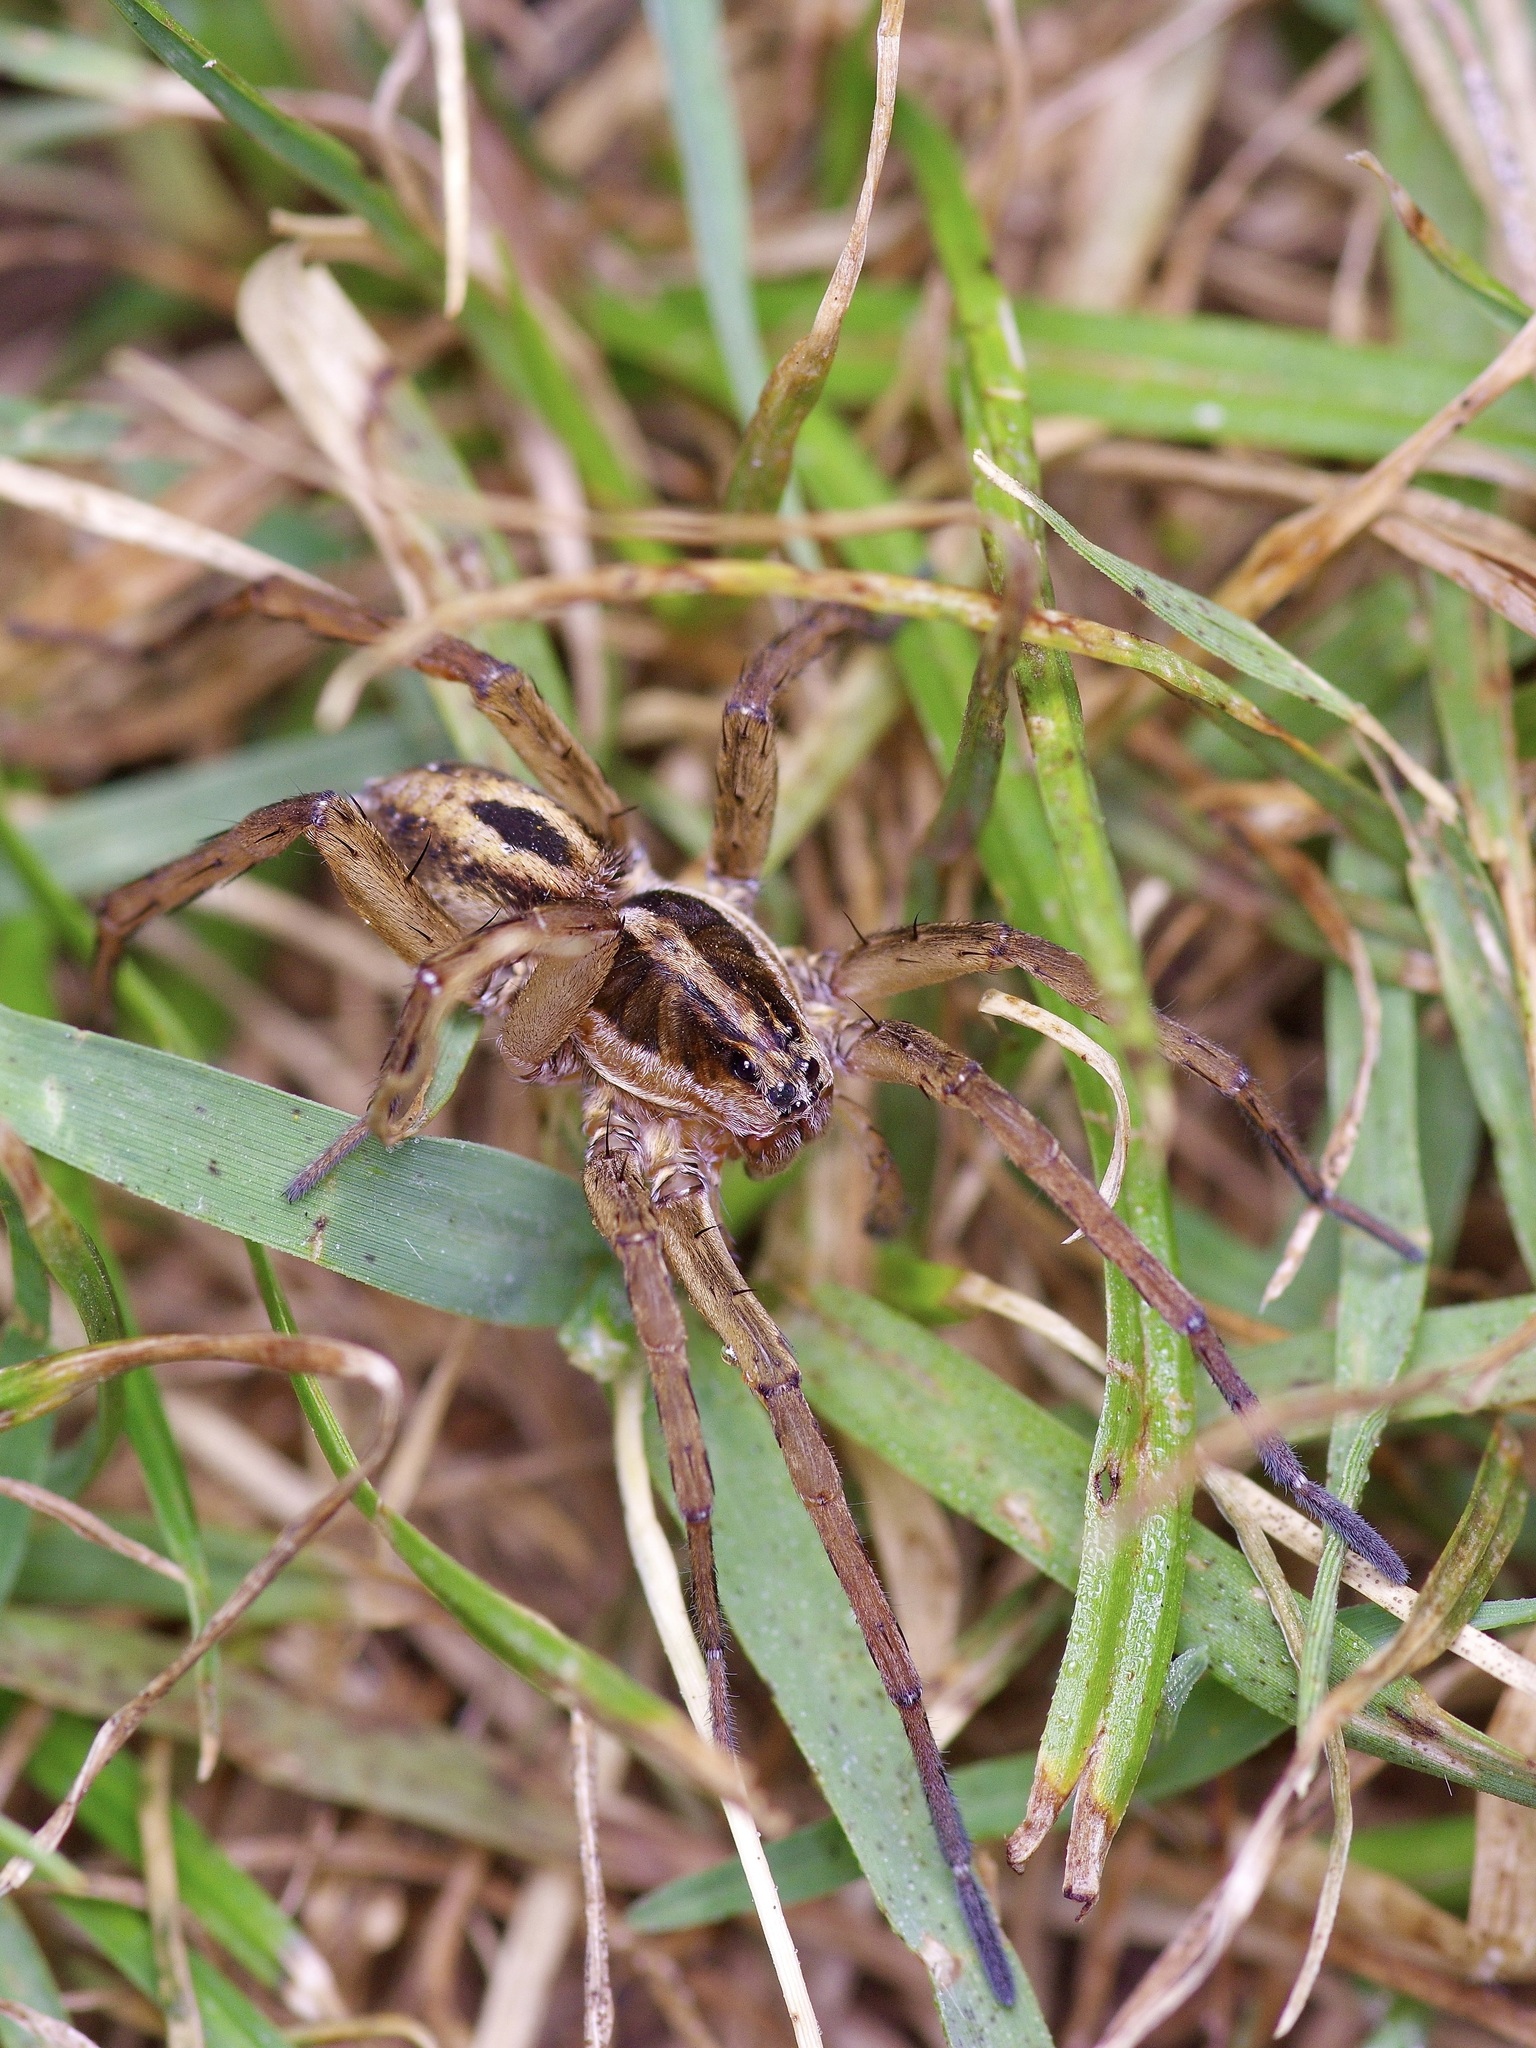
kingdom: Animalia
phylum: Arthropoda
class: Arachnida
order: Araneae
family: Lycosidae
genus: Tigrosa
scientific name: Tigrosa annexa
